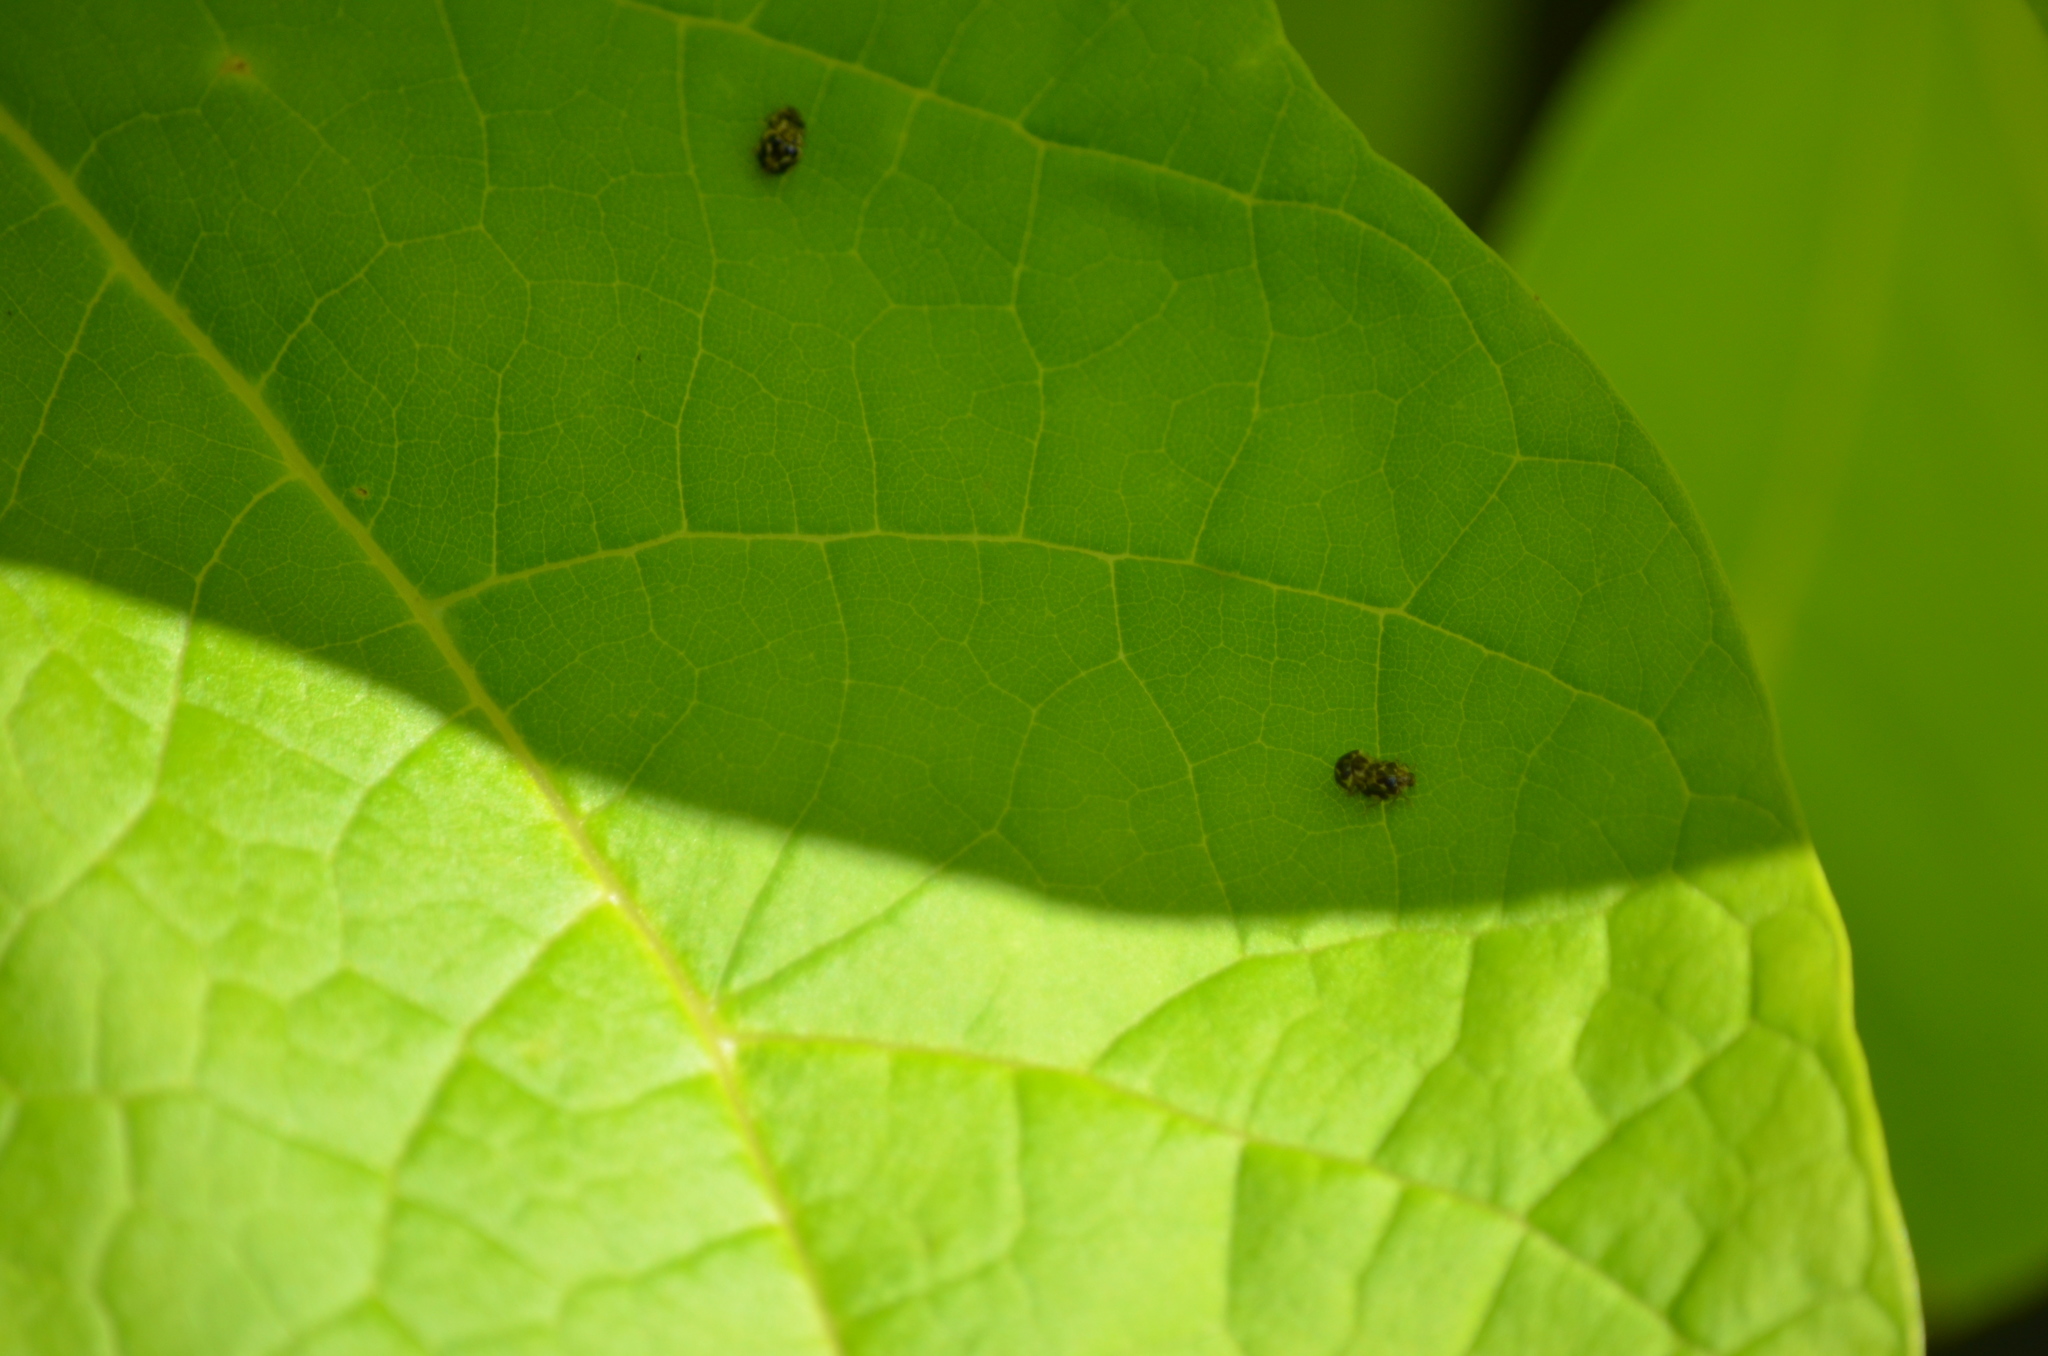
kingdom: Animalia
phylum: Arthropoda
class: Insecta
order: Coleoptera
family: Coccinellidae
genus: Psyllobora
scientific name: Psyllobora vigintimaculata
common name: Ladybird beetle
